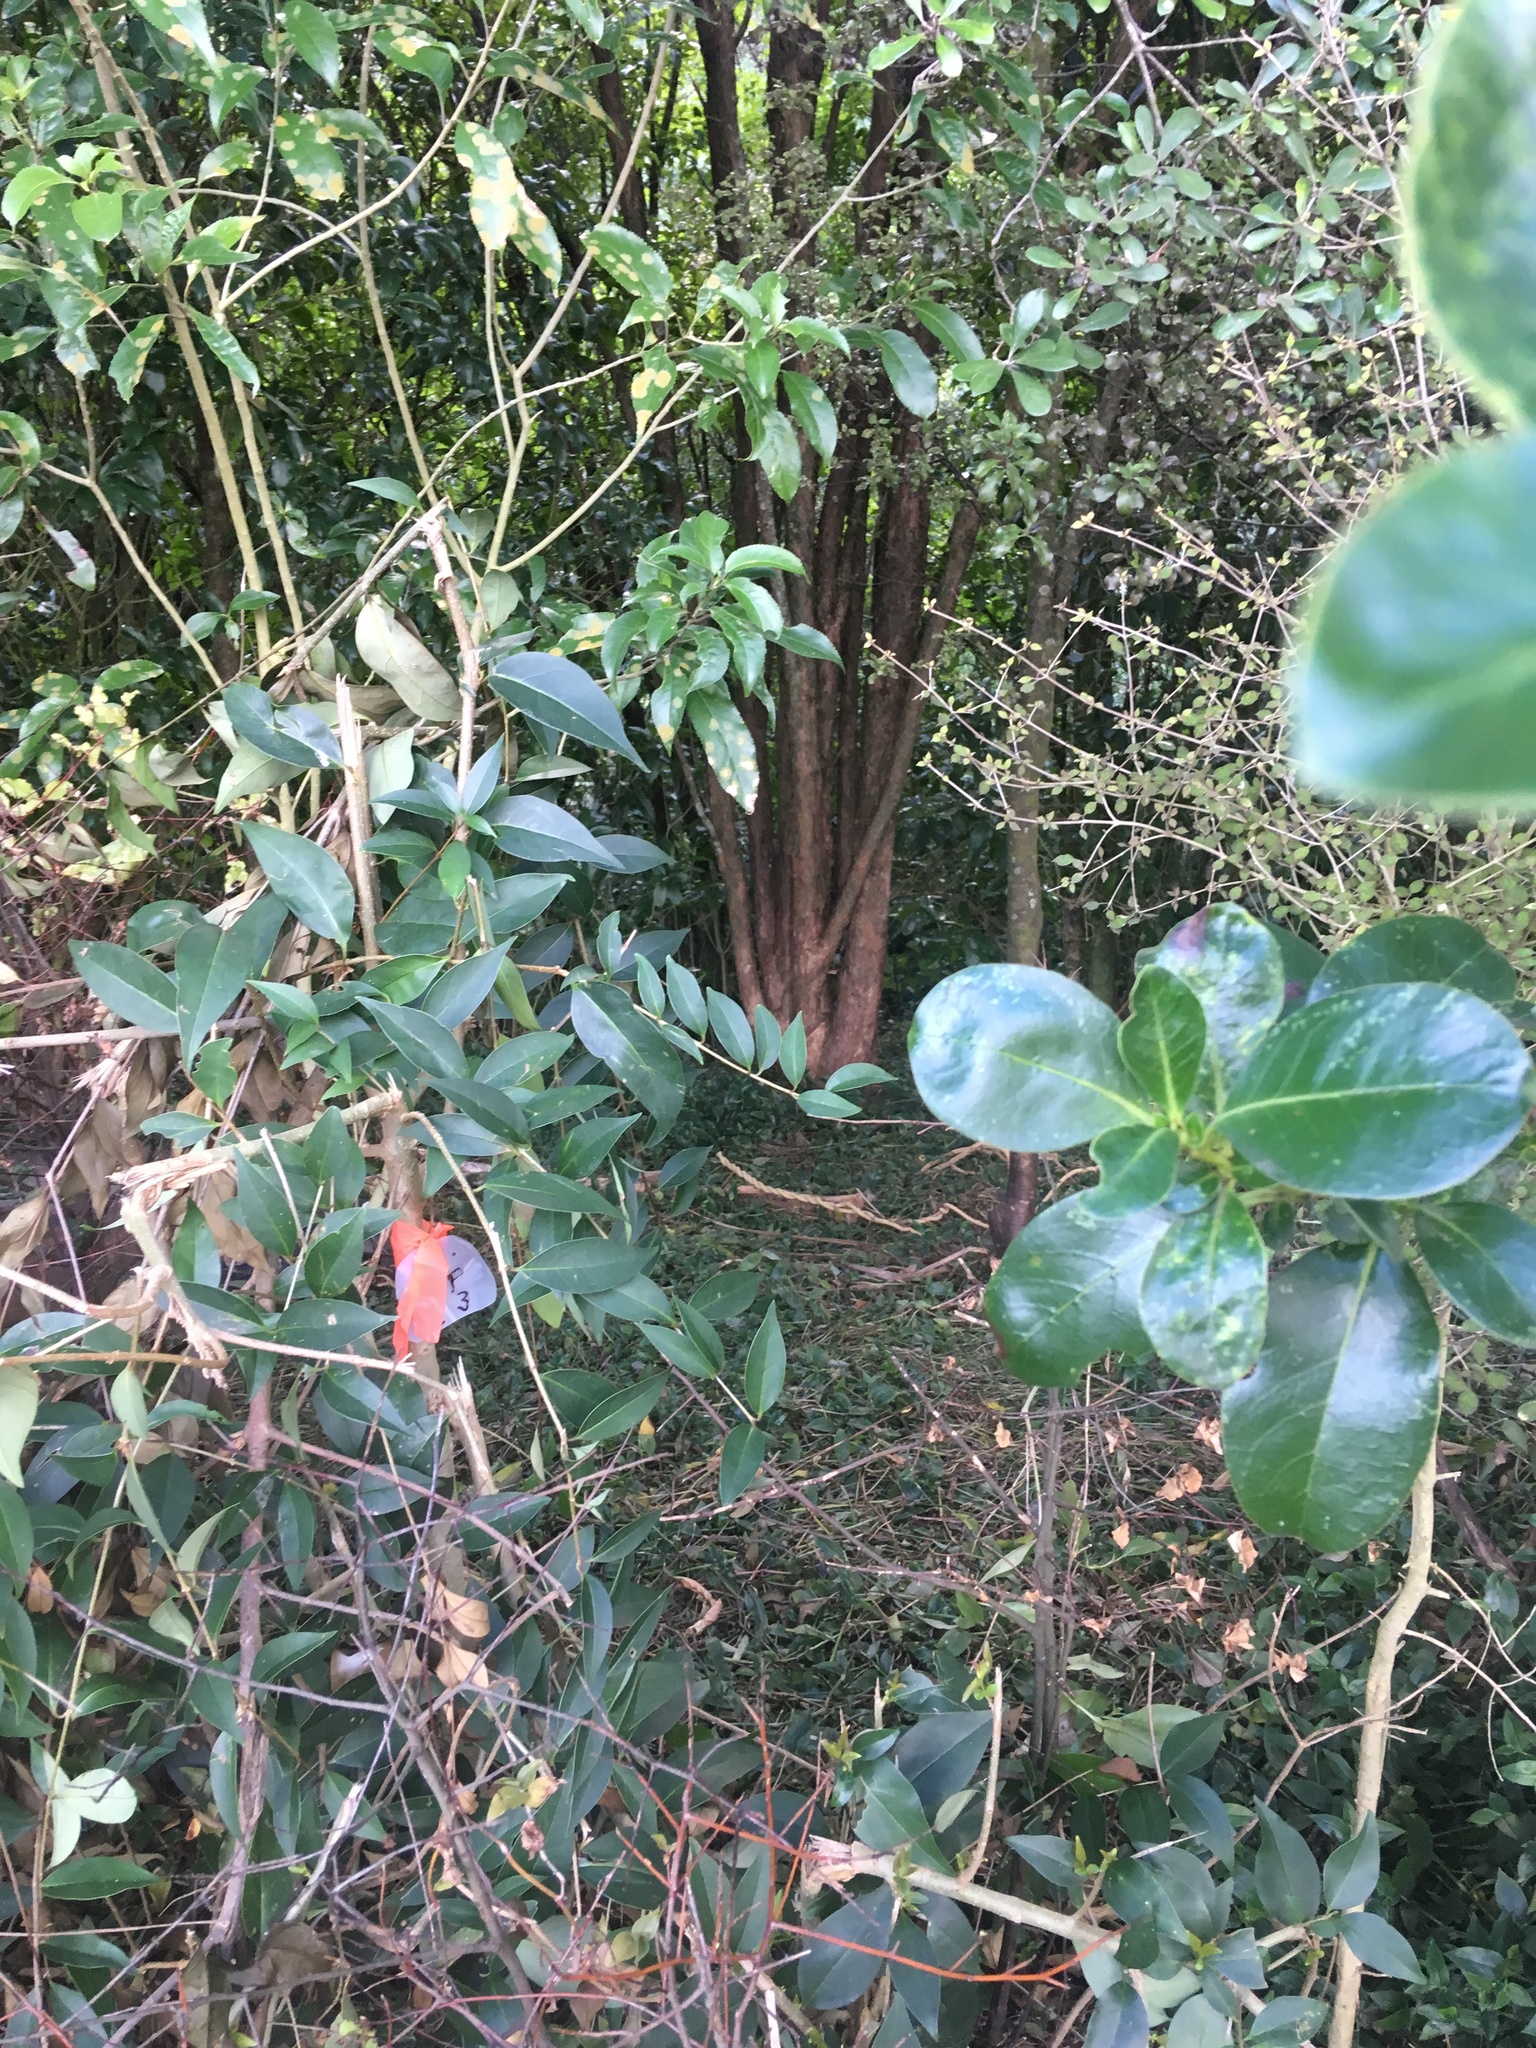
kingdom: Plantae
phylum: Tracheophyta
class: Magnoliopsida
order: Lamiales
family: Oleaceae
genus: Ligustrum
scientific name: Ligustrum lucidum
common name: Glossy privet
